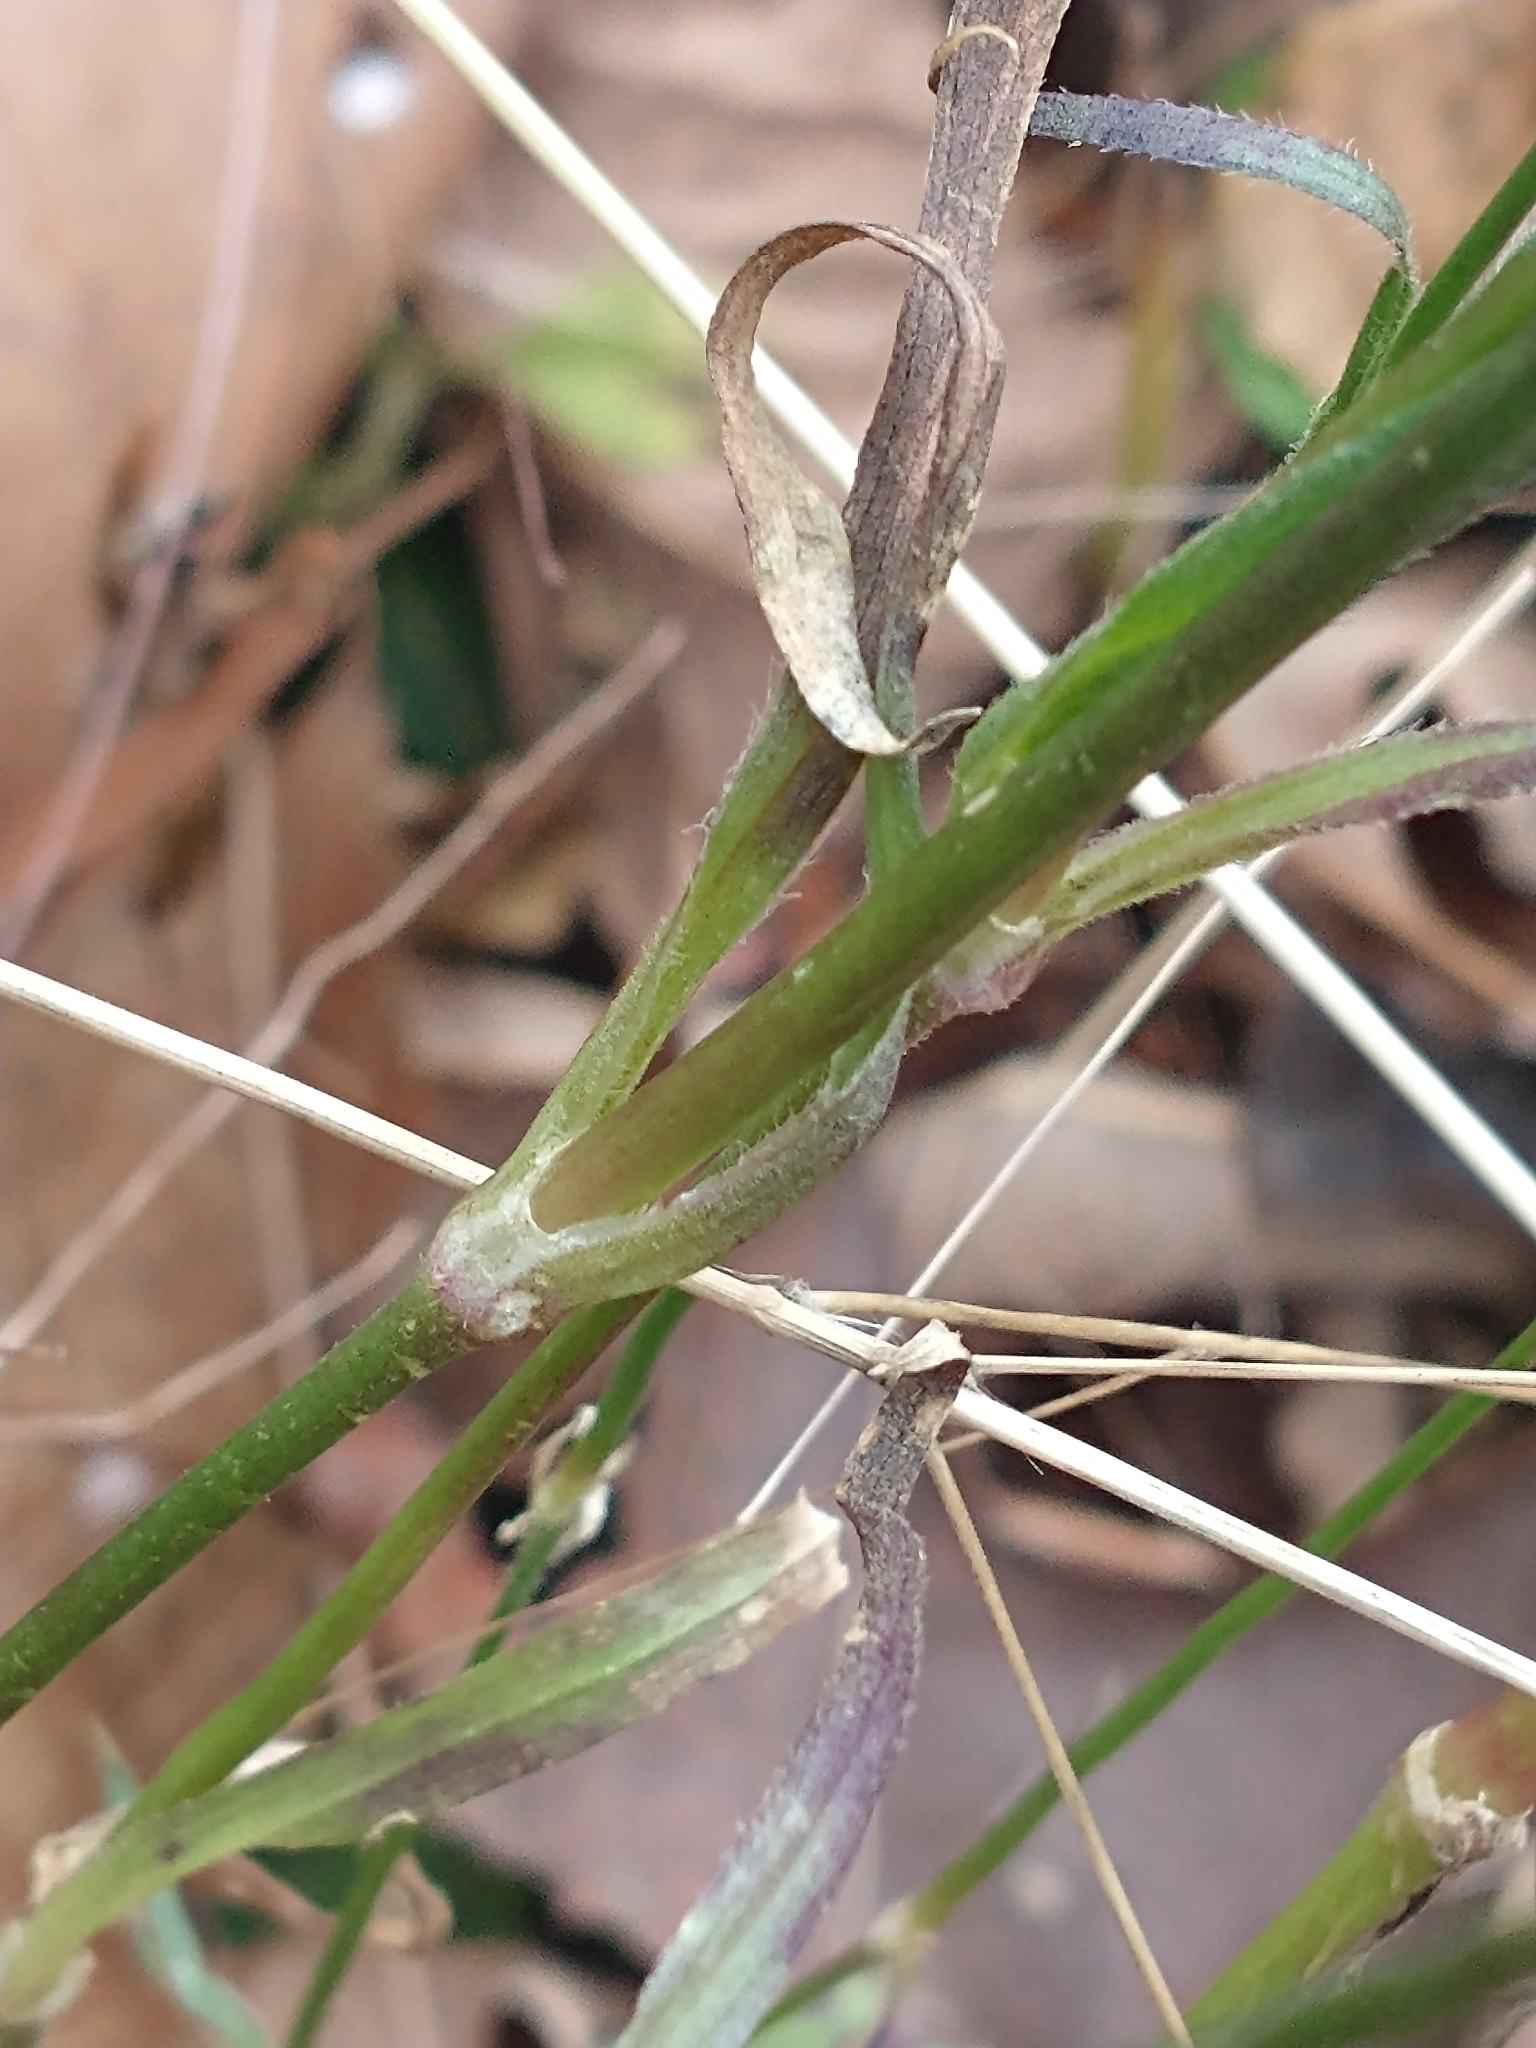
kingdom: Plantae
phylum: Tracheophyta
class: Magnoliopsida
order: Caryophyllales
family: Caryophyllaceae
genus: Dianthus
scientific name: Dianthus armeria
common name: Deptford pink
